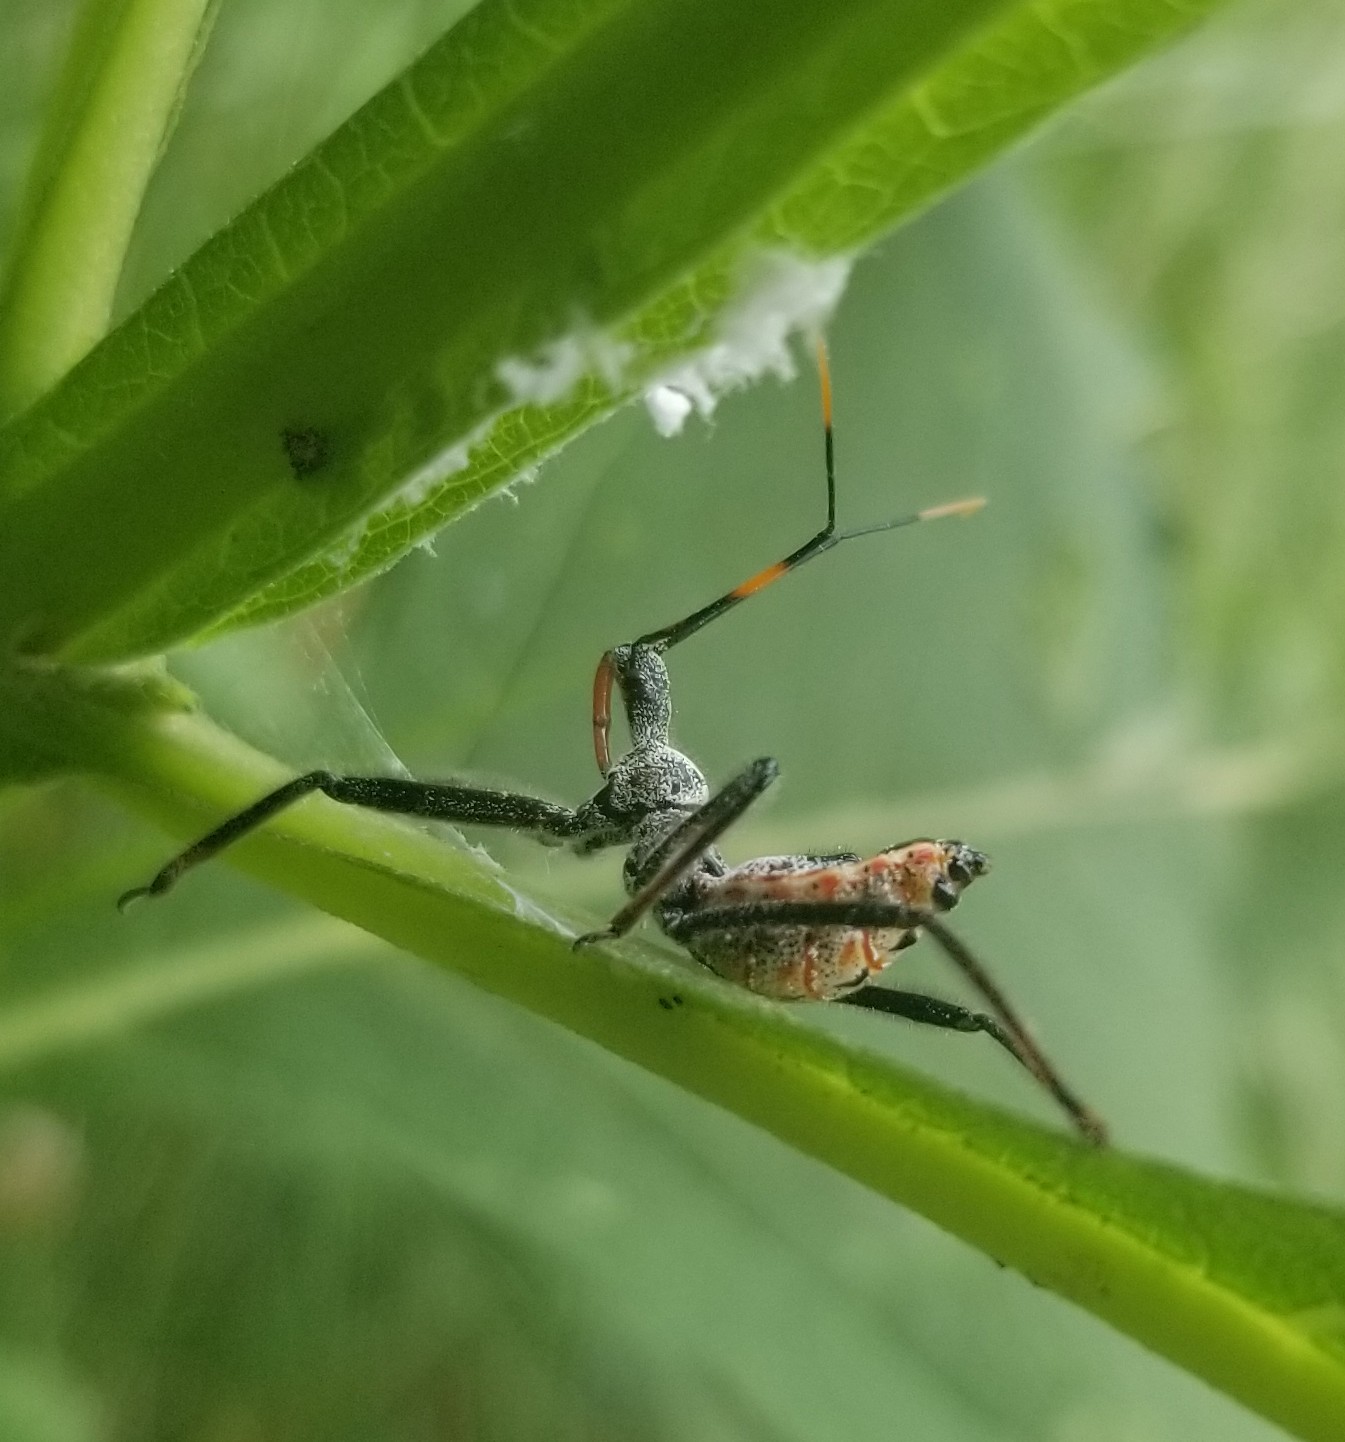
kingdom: Animalia
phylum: Arthropoda
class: Insecta
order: Hemiptera
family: Reduviidae
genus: Arilus
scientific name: Arilus cristatus
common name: North american wheel bug
